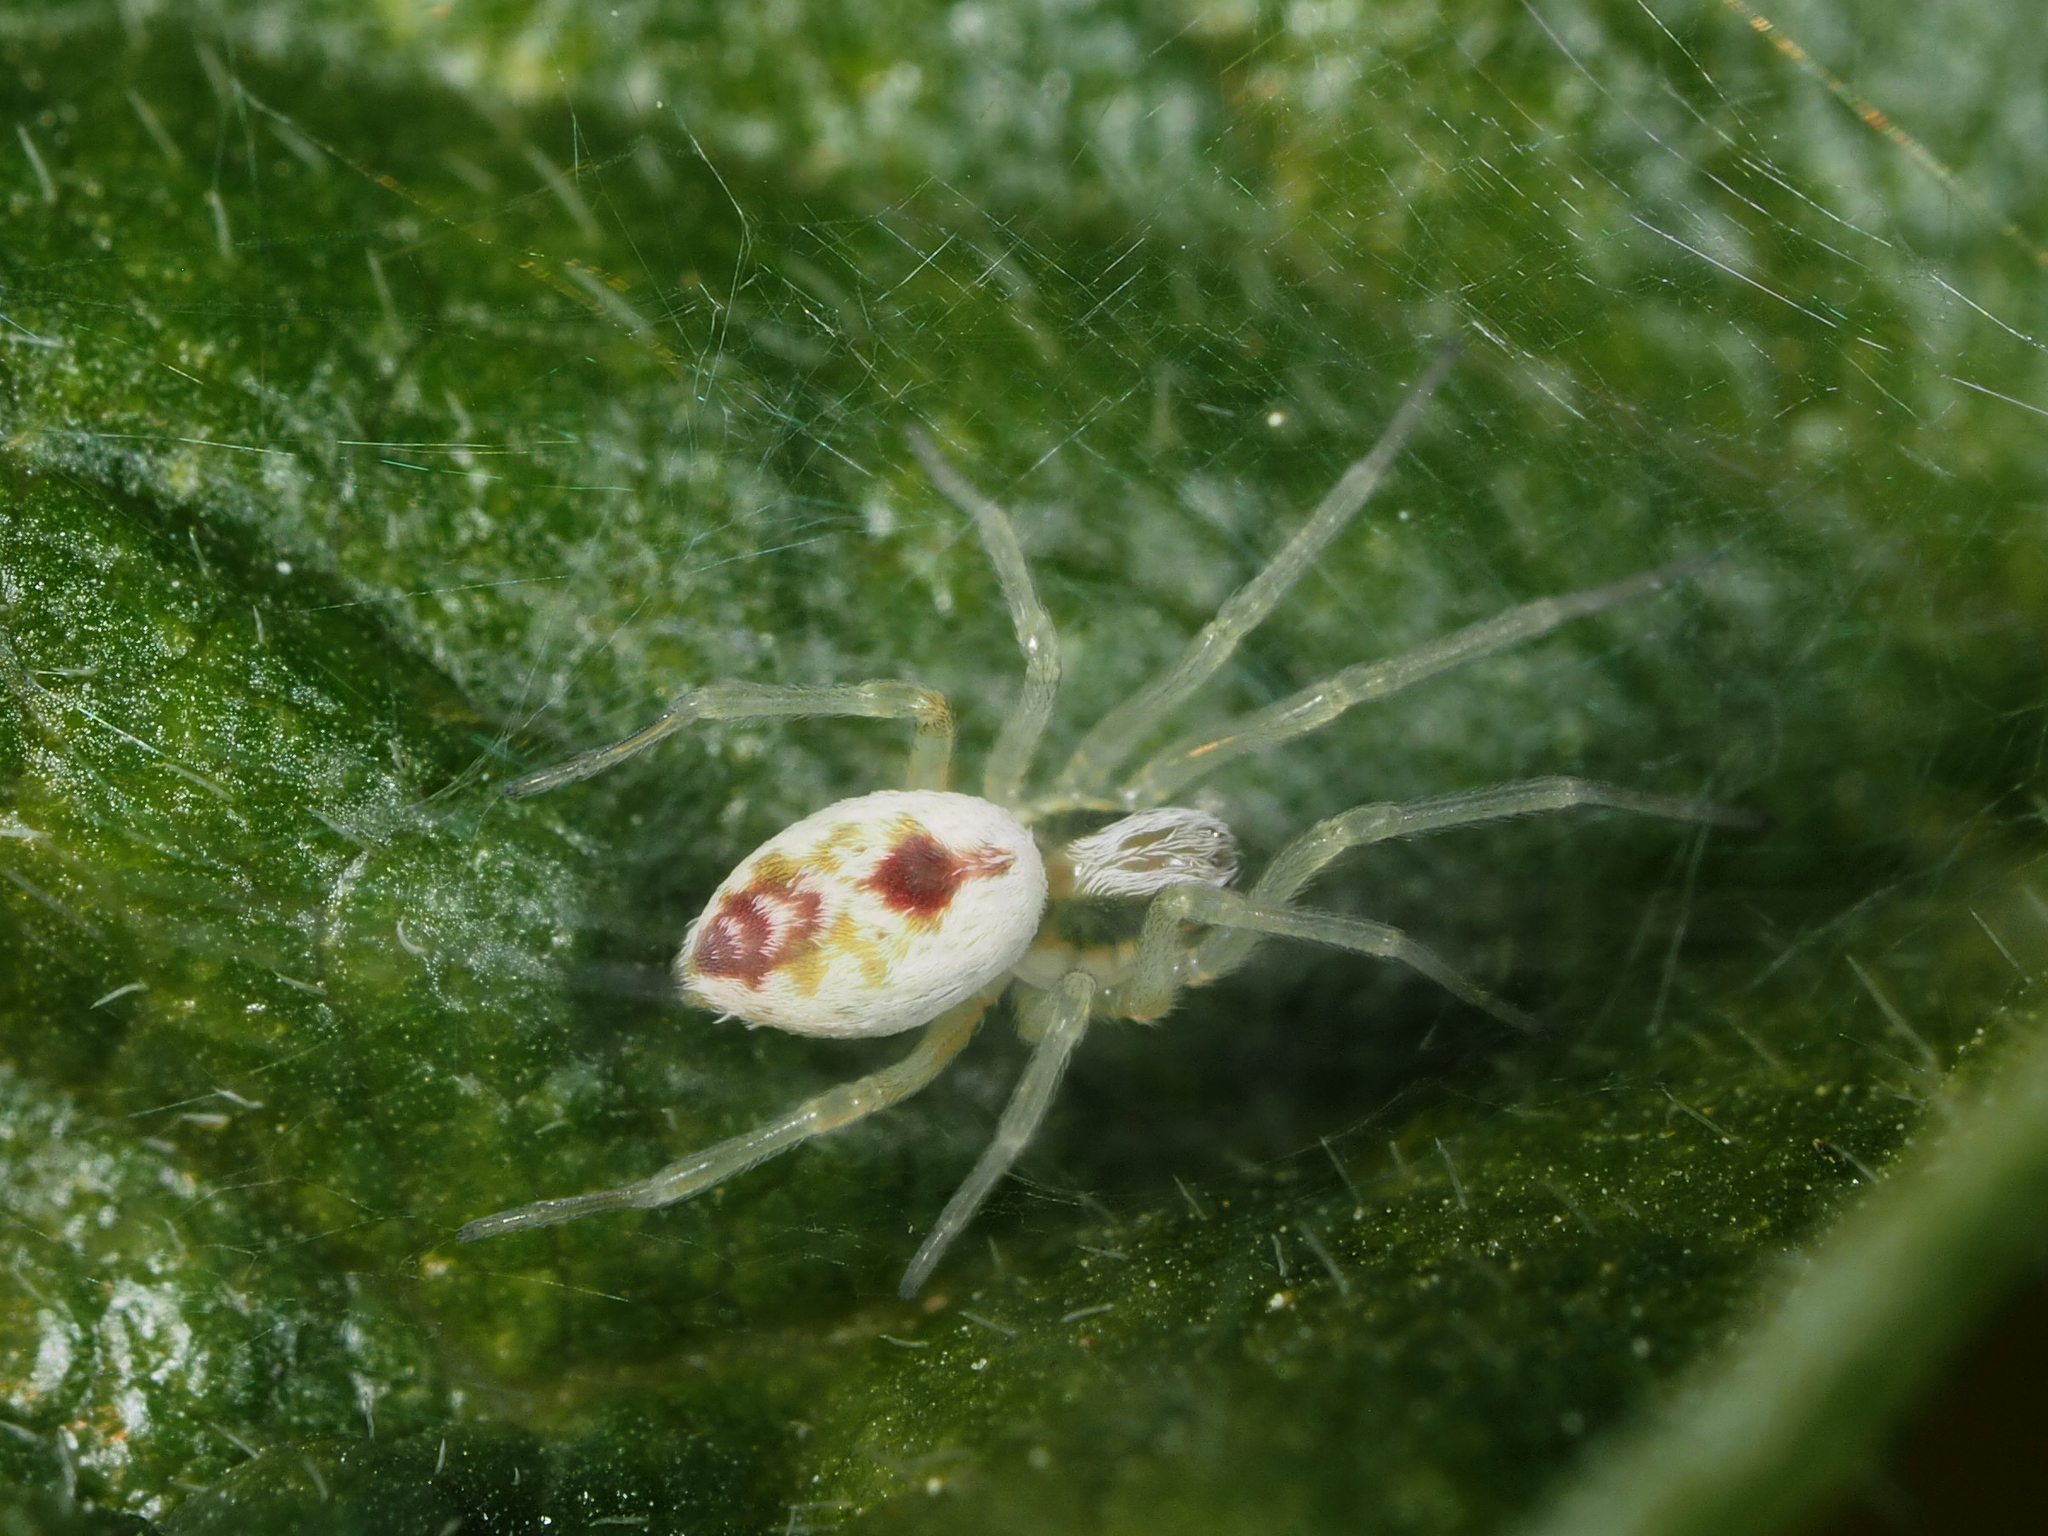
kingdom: Animalia
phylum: Arthropoda
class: Arachnida
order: Araneae
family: Dictynidae
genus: Nigma
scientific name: Nigma puella
